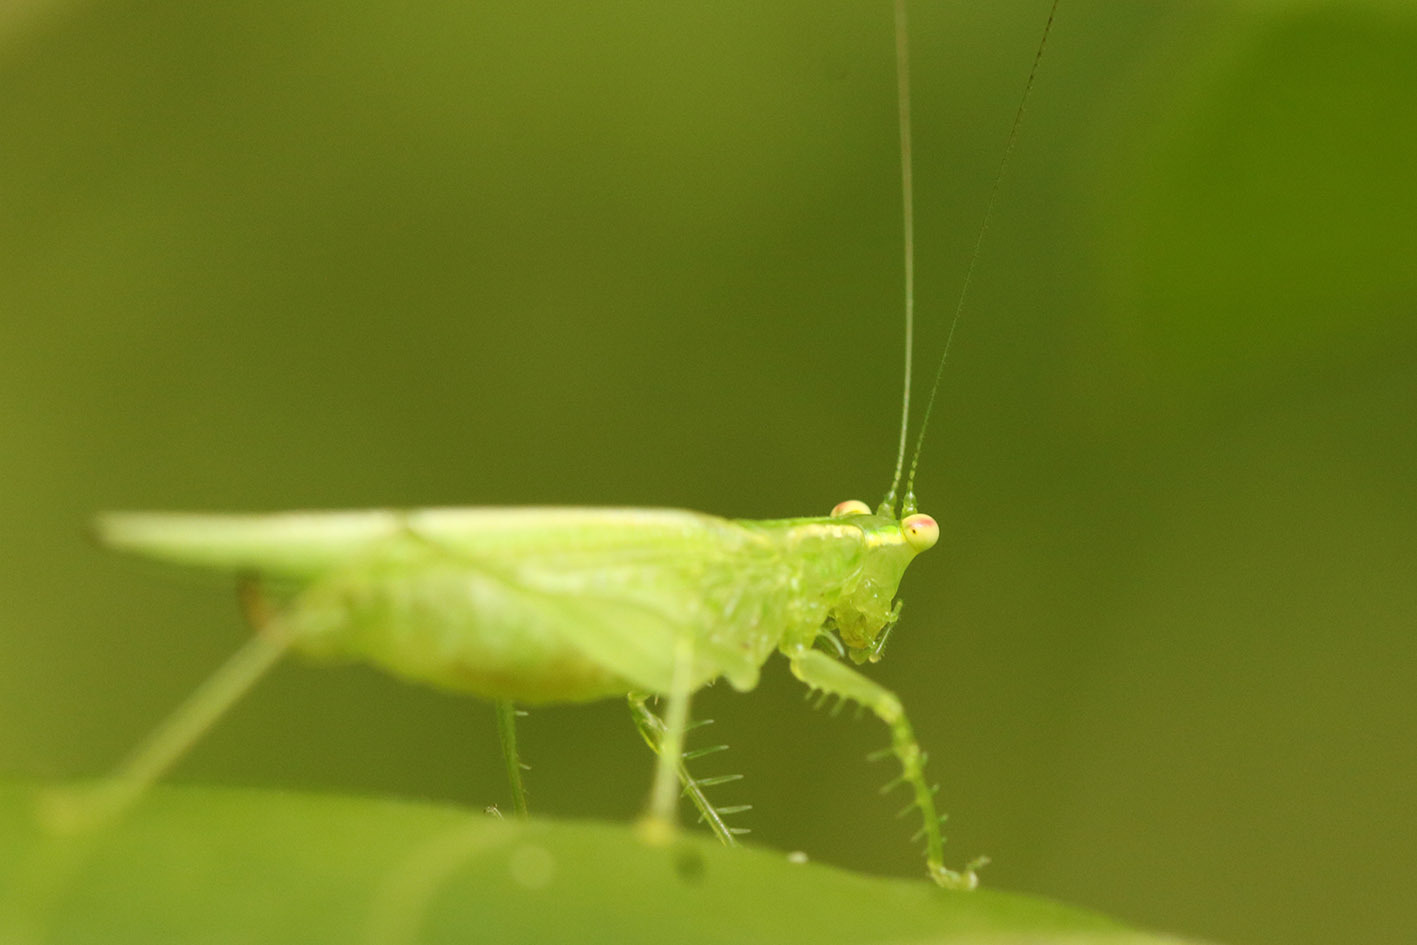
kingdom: Animalia
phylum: Arthropoda
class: Insecta
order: Orthoptera
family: Tettigoniidae
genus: Phlugis
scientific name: Phlugis proseni
